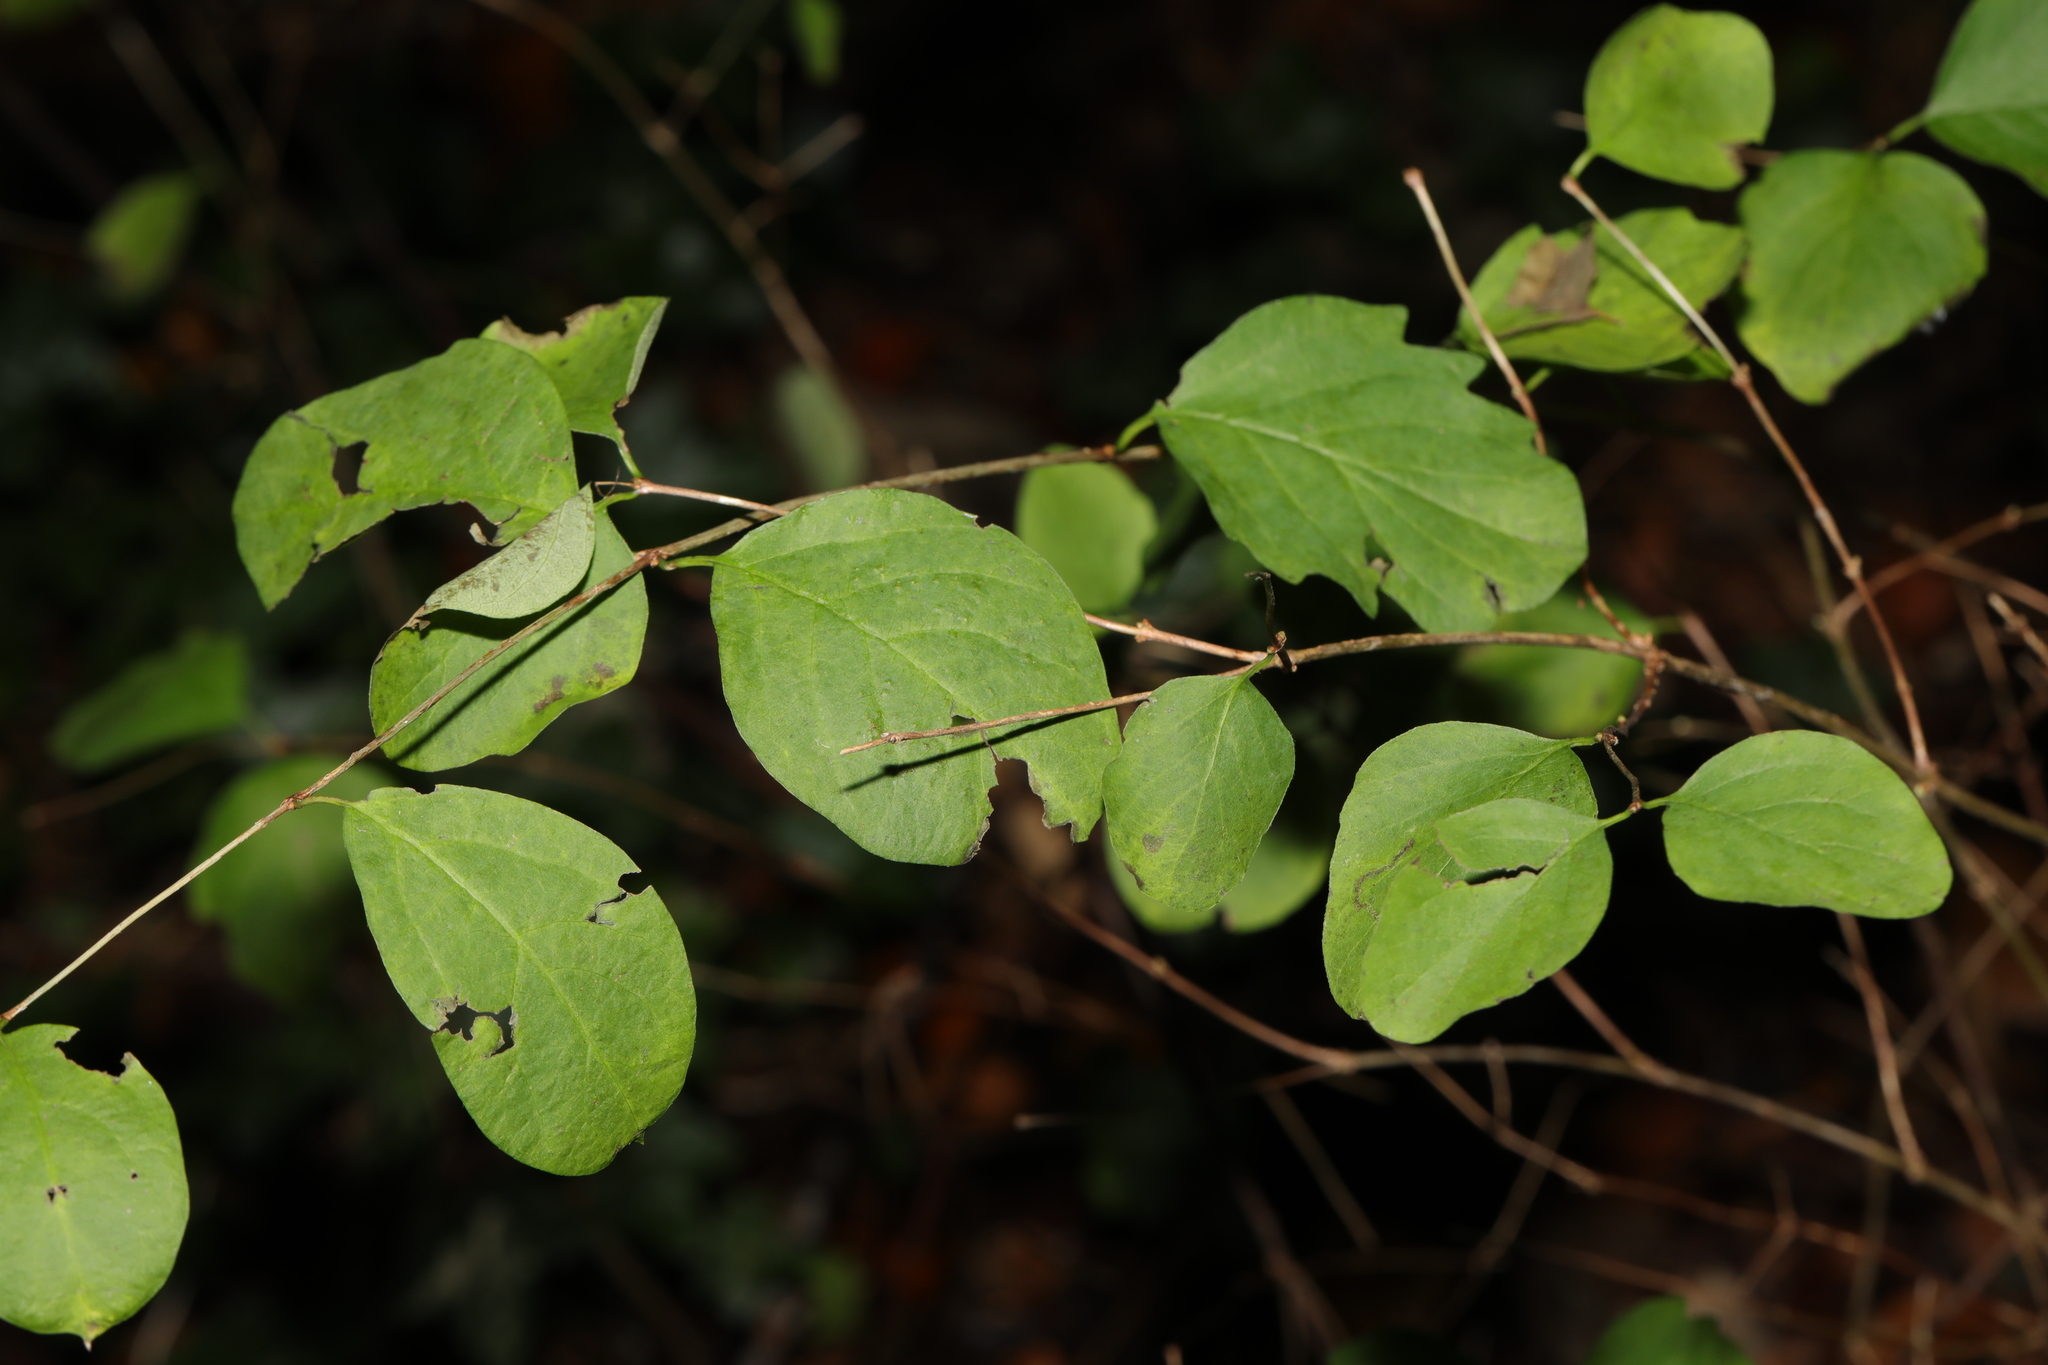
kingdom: Plantae
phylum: Tracheophyta
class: Magnoliopsida
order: Dipsacales
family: Caprifoliaceae
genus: Symphoricarpos
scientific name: Symphoricarpos albus
